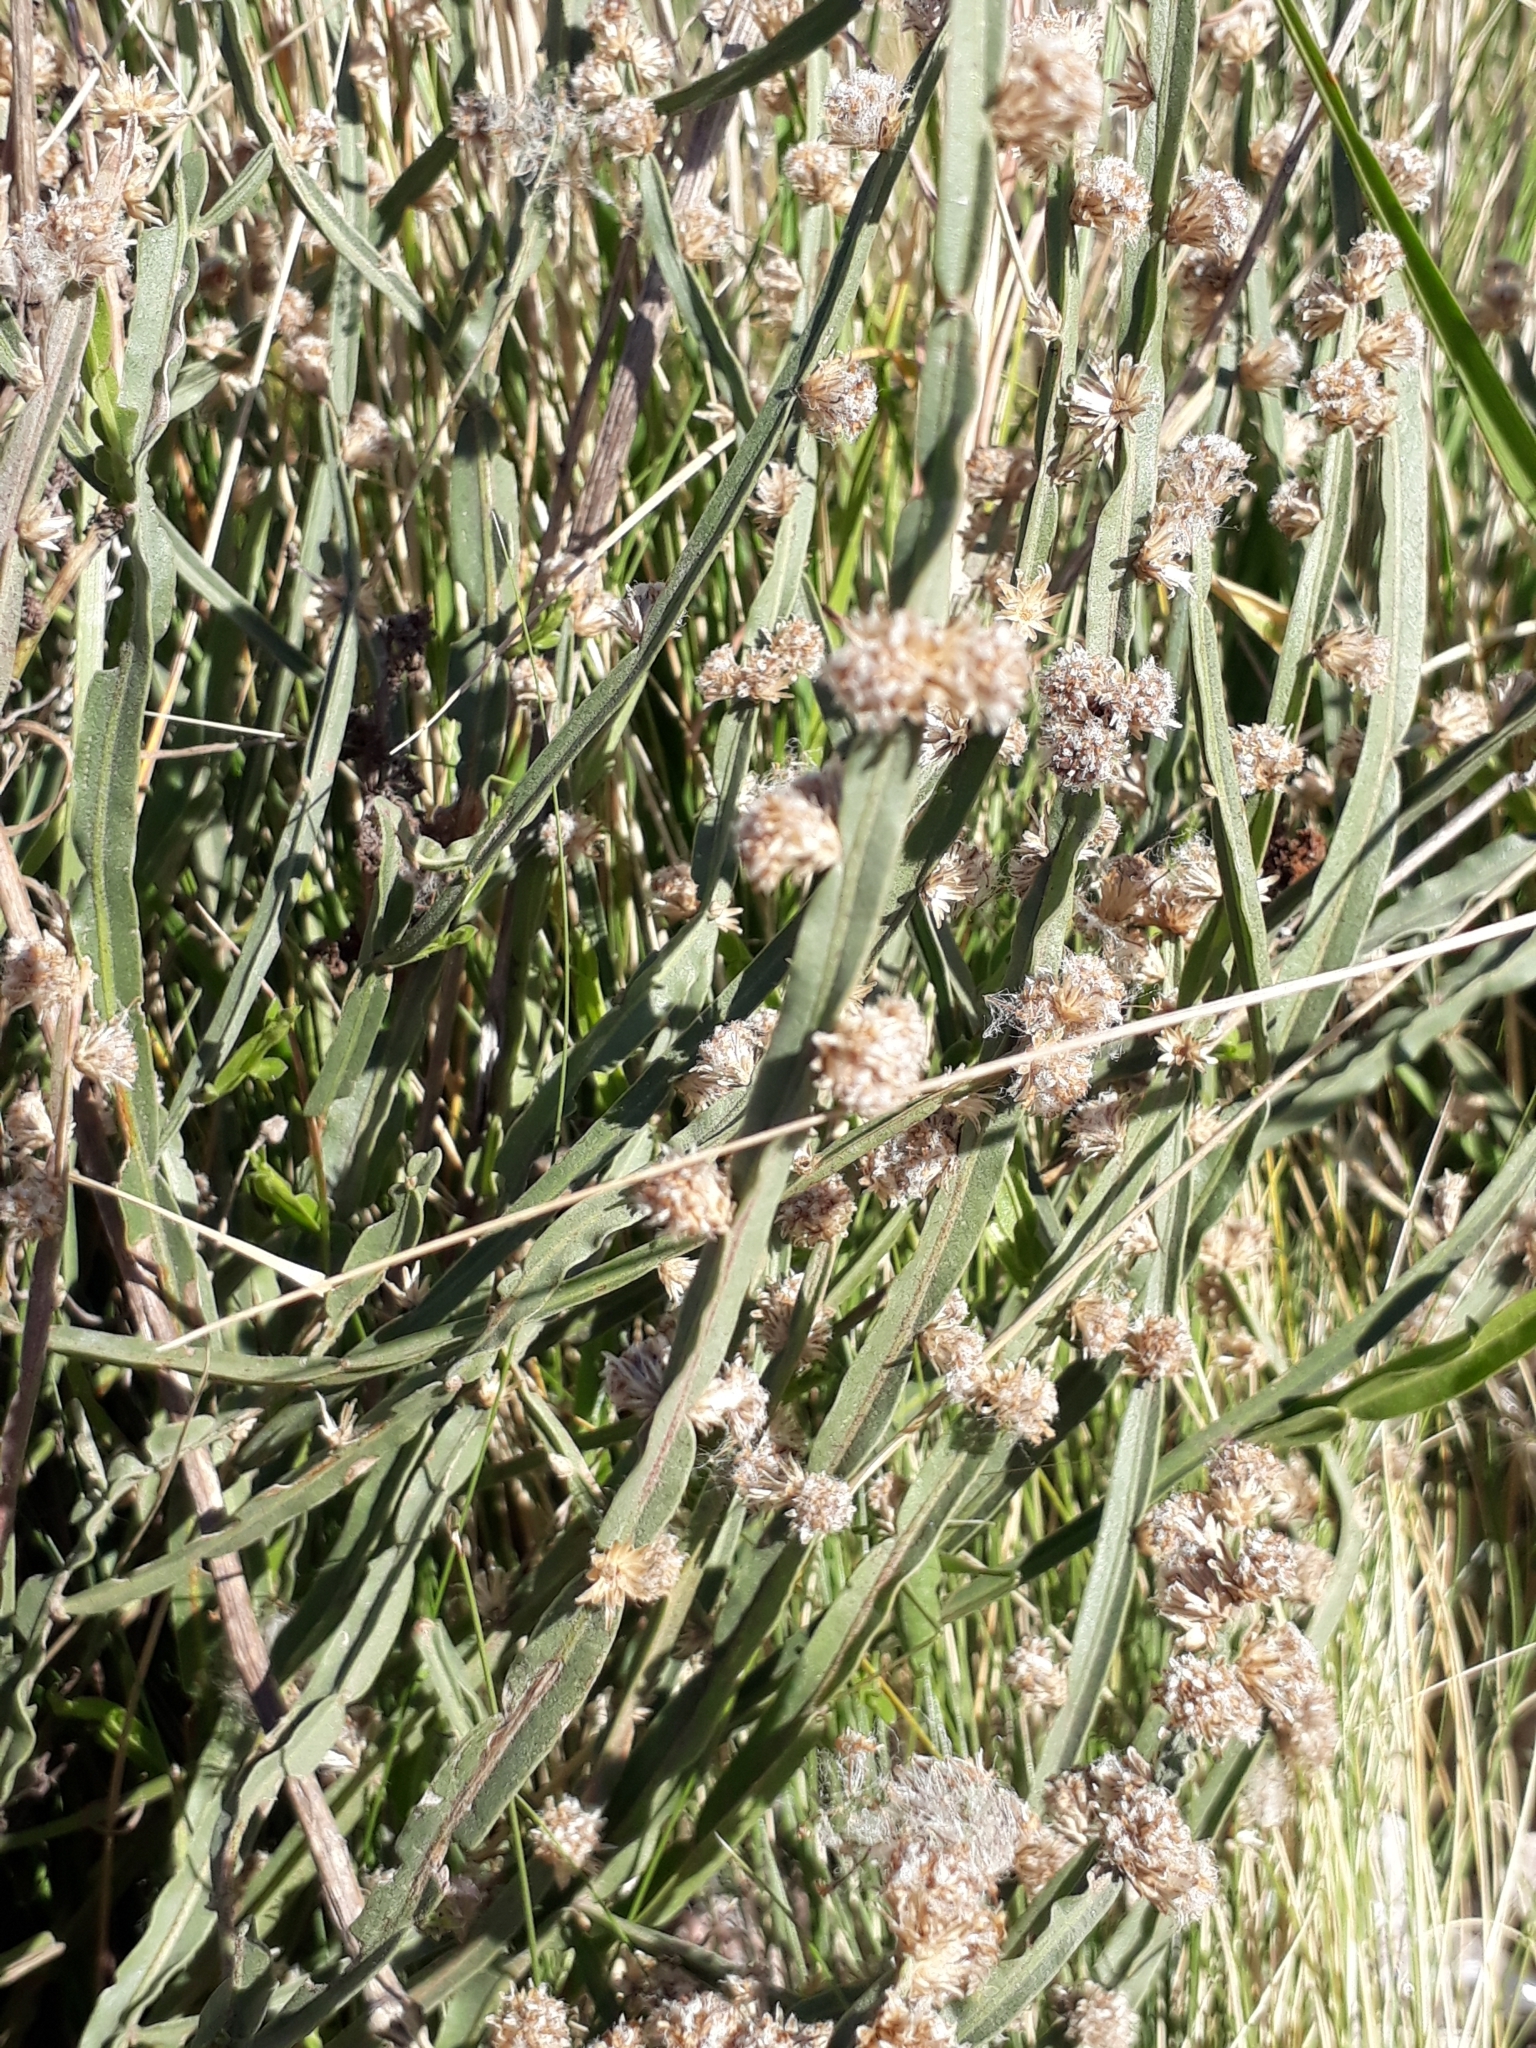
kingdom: Plantae
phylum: Tracheophyta
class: Magnoliopsida
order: Asterales
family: Asteraceae
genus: Baccharis
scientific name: Baccharis crispa
